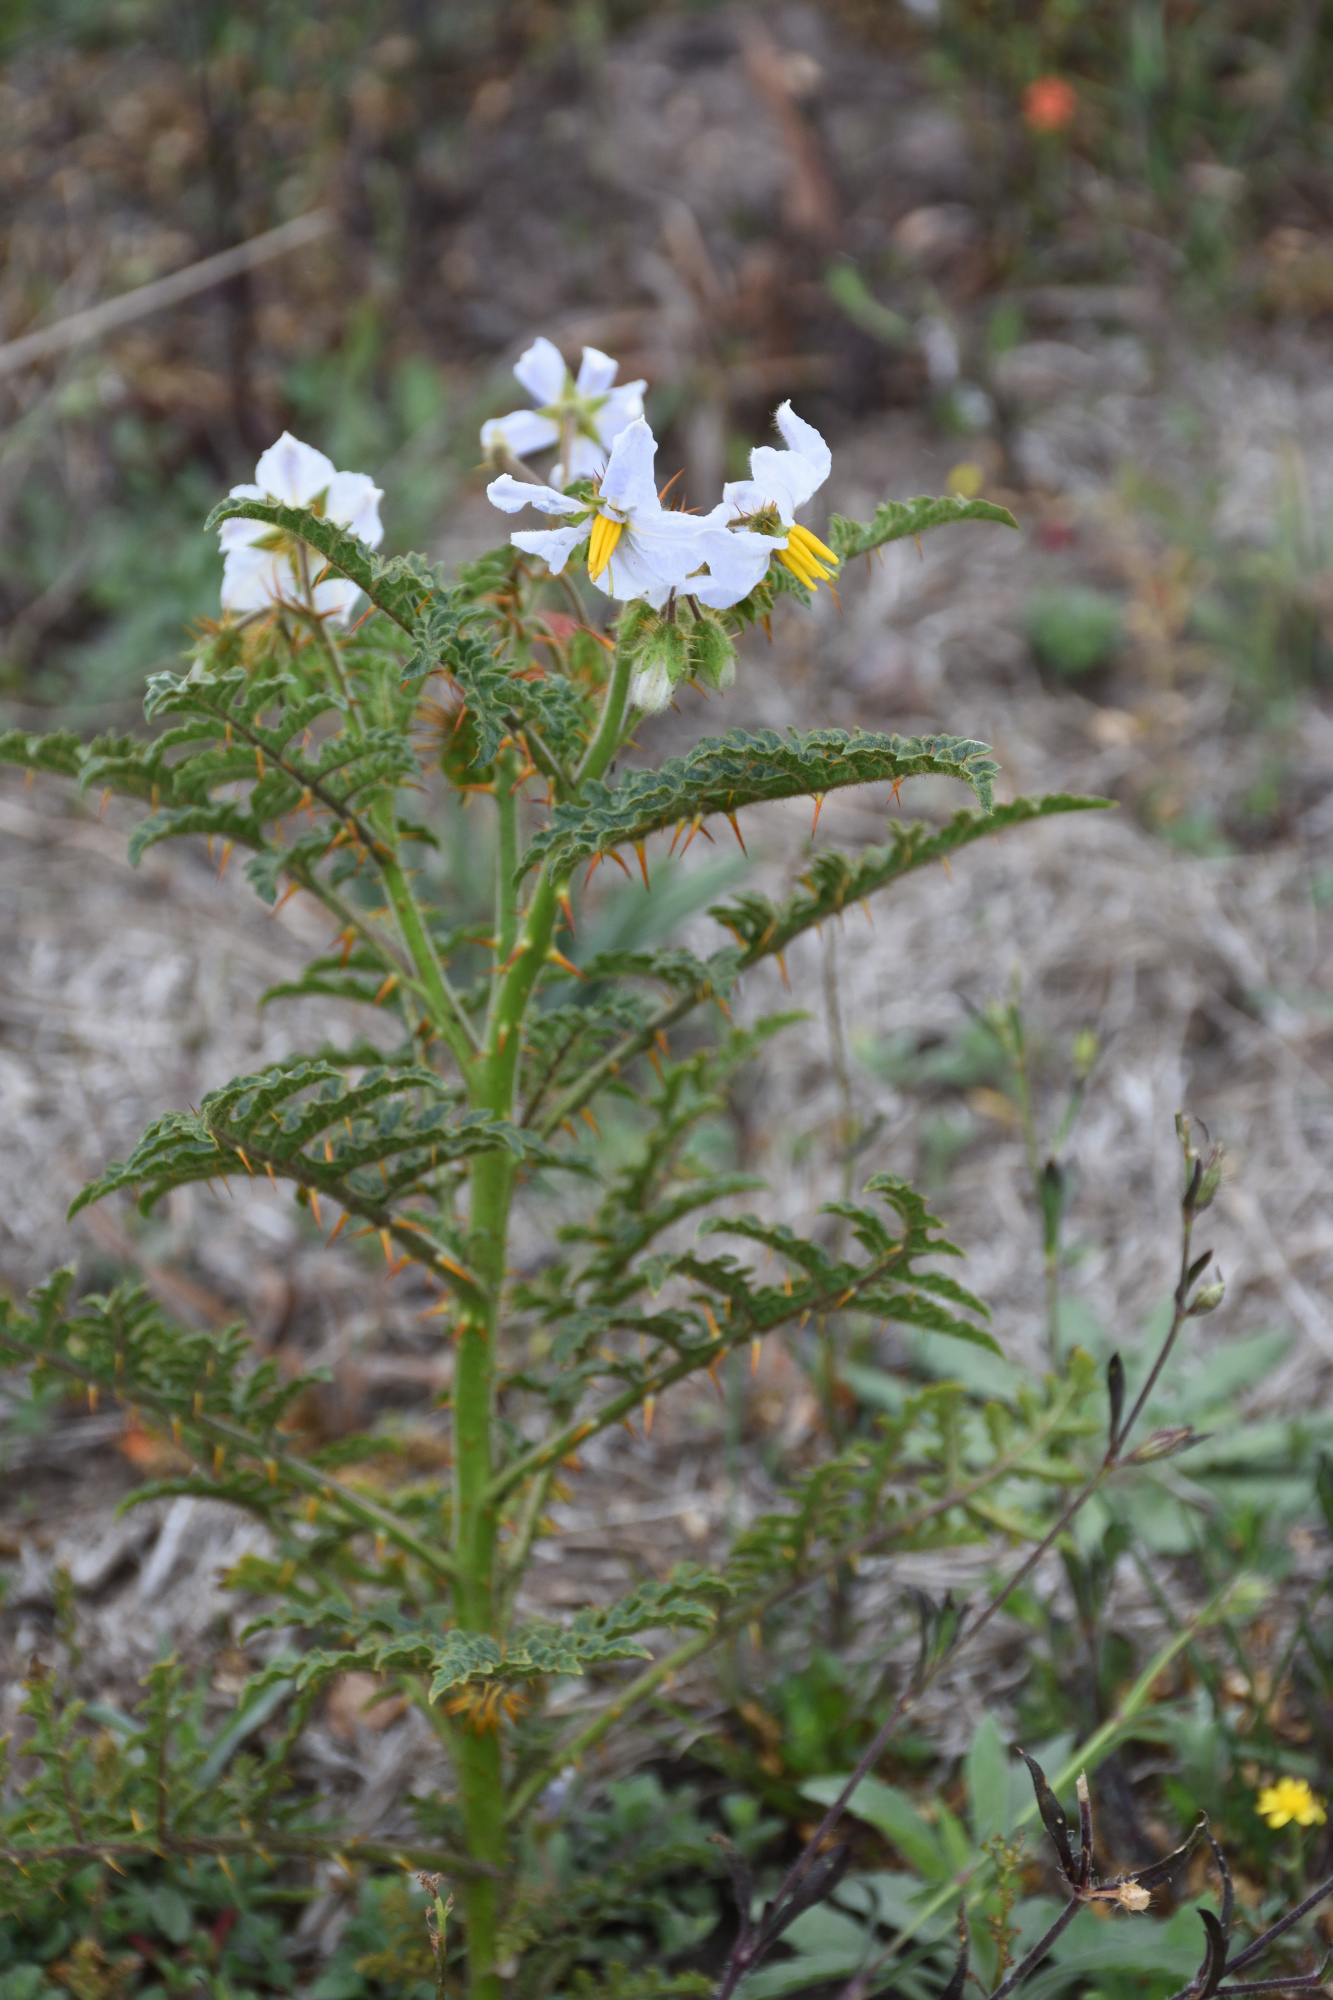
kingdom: Plantae
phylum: Tracheophyta
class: Magnoliopsida
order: Solanales
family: Solanaceae
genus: Solanum
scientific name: Solanum sisymbriifolium
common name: Red buffalo-bur
